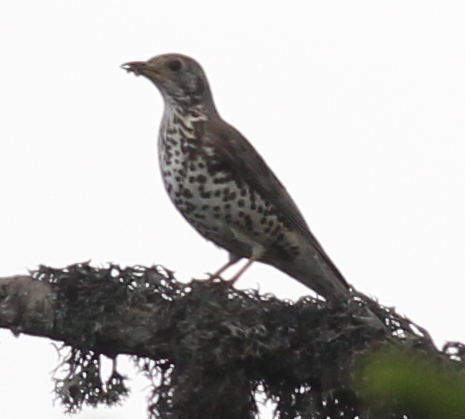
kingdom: Animalia
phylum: Chordata
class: Aves
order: Passeriformes
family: Turdidae
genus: Turdus
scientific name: Turdus viscivorus
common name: Mistle thrush
